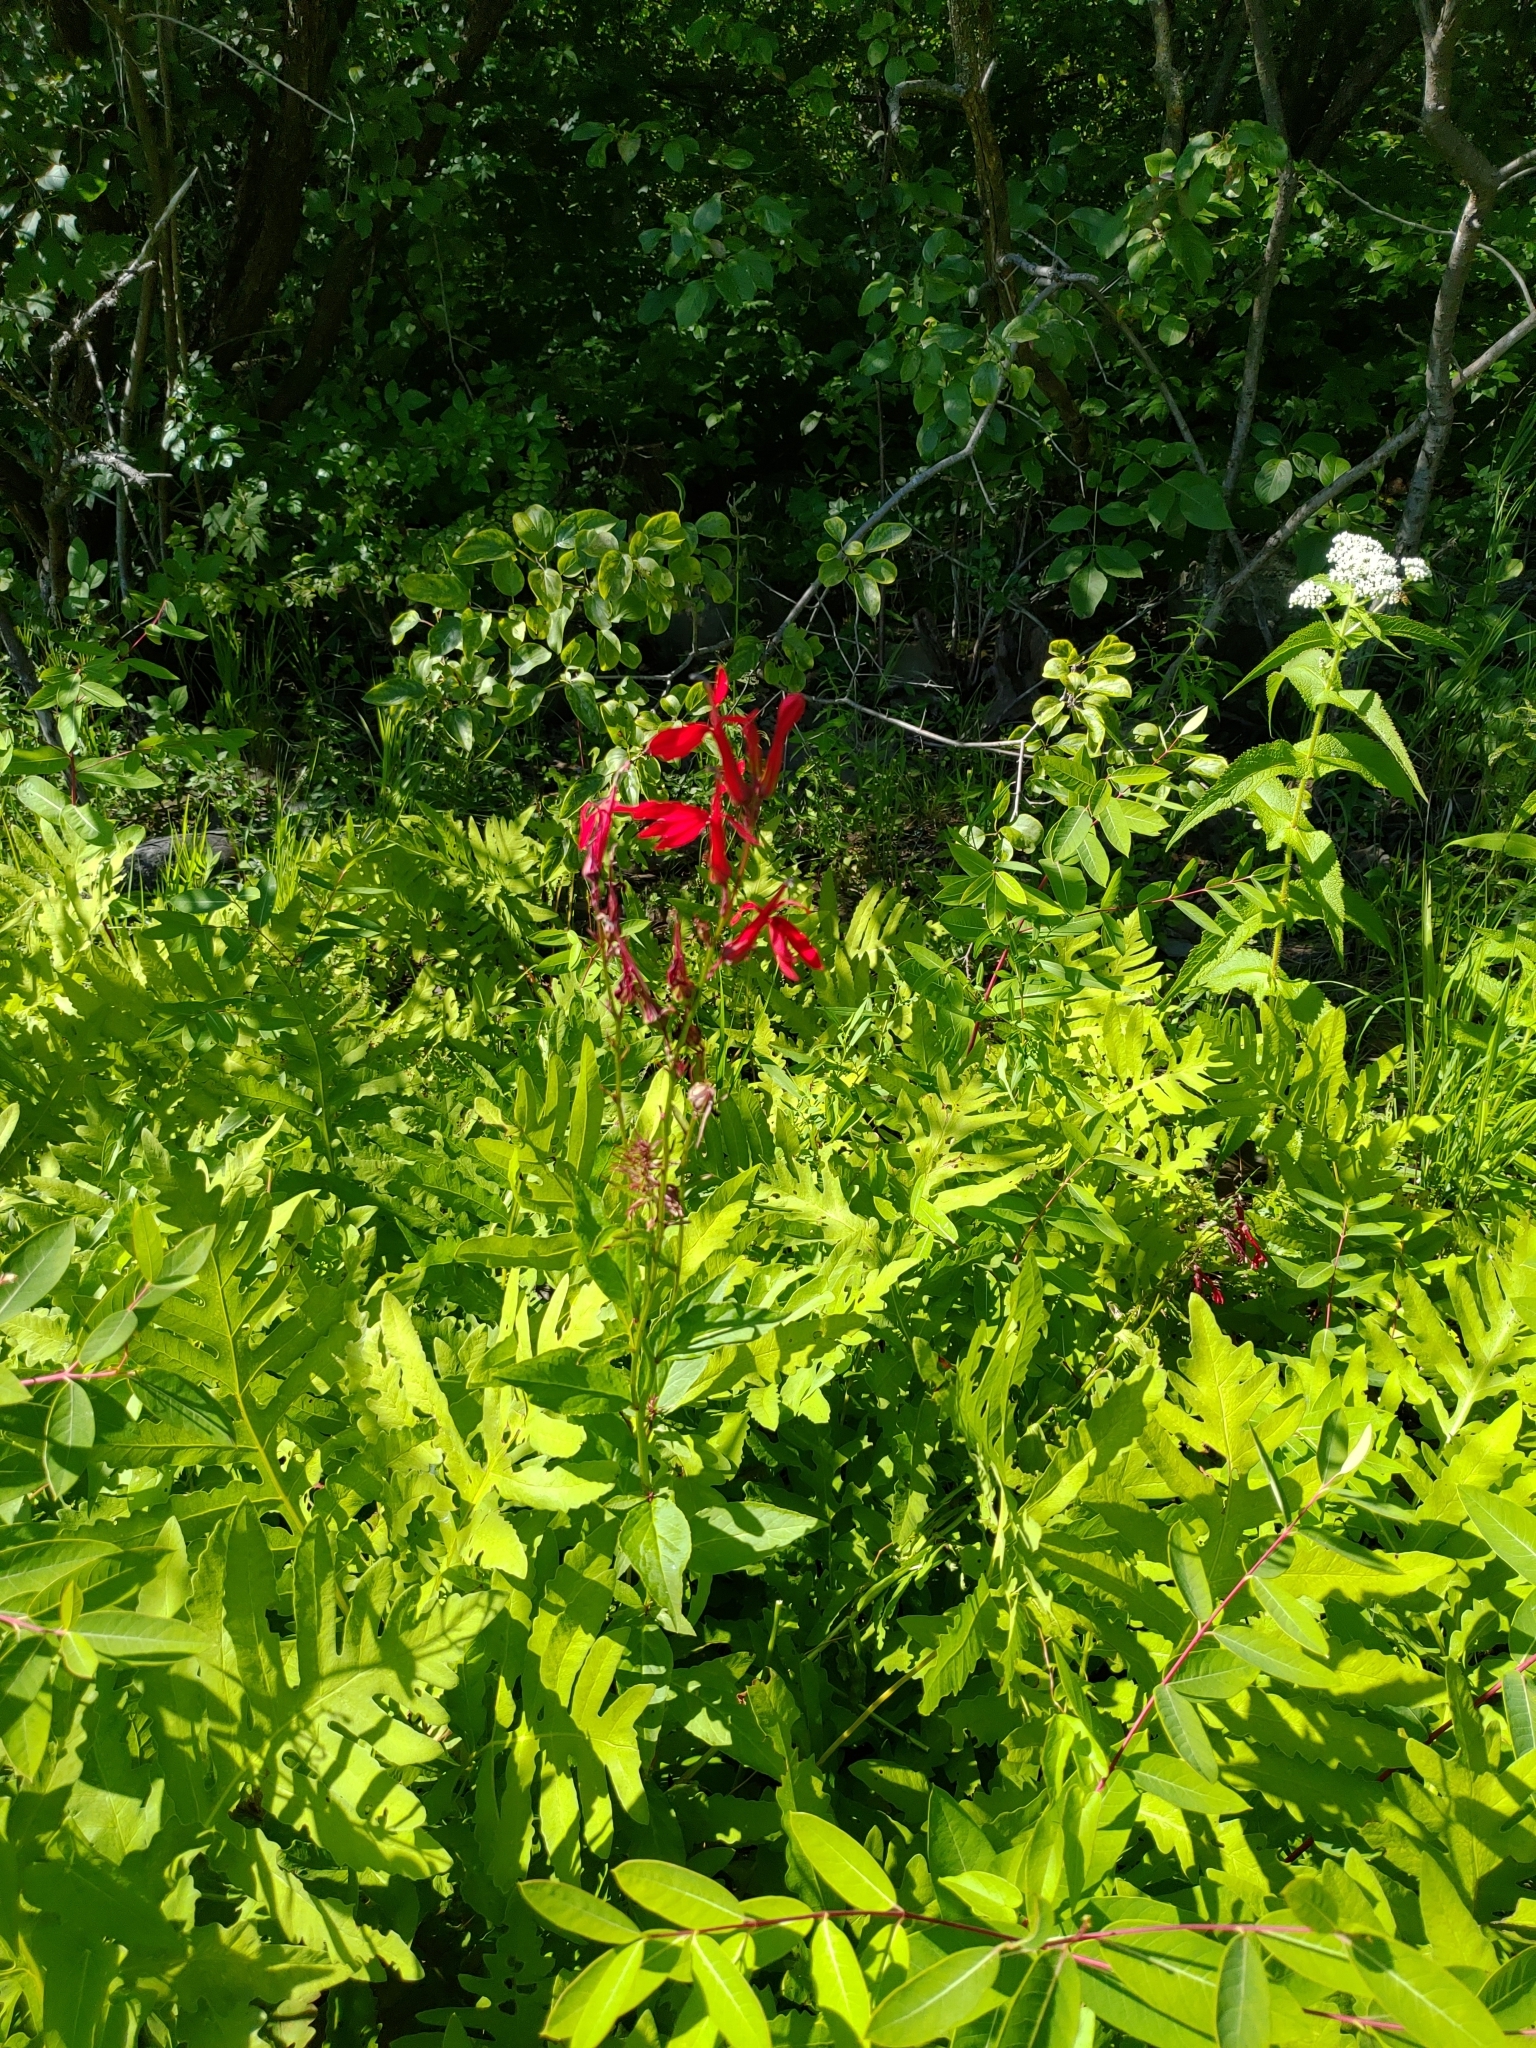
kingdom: Plantae
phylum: Tracheophyta
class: Magnoliopsida
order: Asterales
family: Campanulaceae
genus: Lobelia
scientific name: Lobelia cardinalis
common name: Cardinal flower
